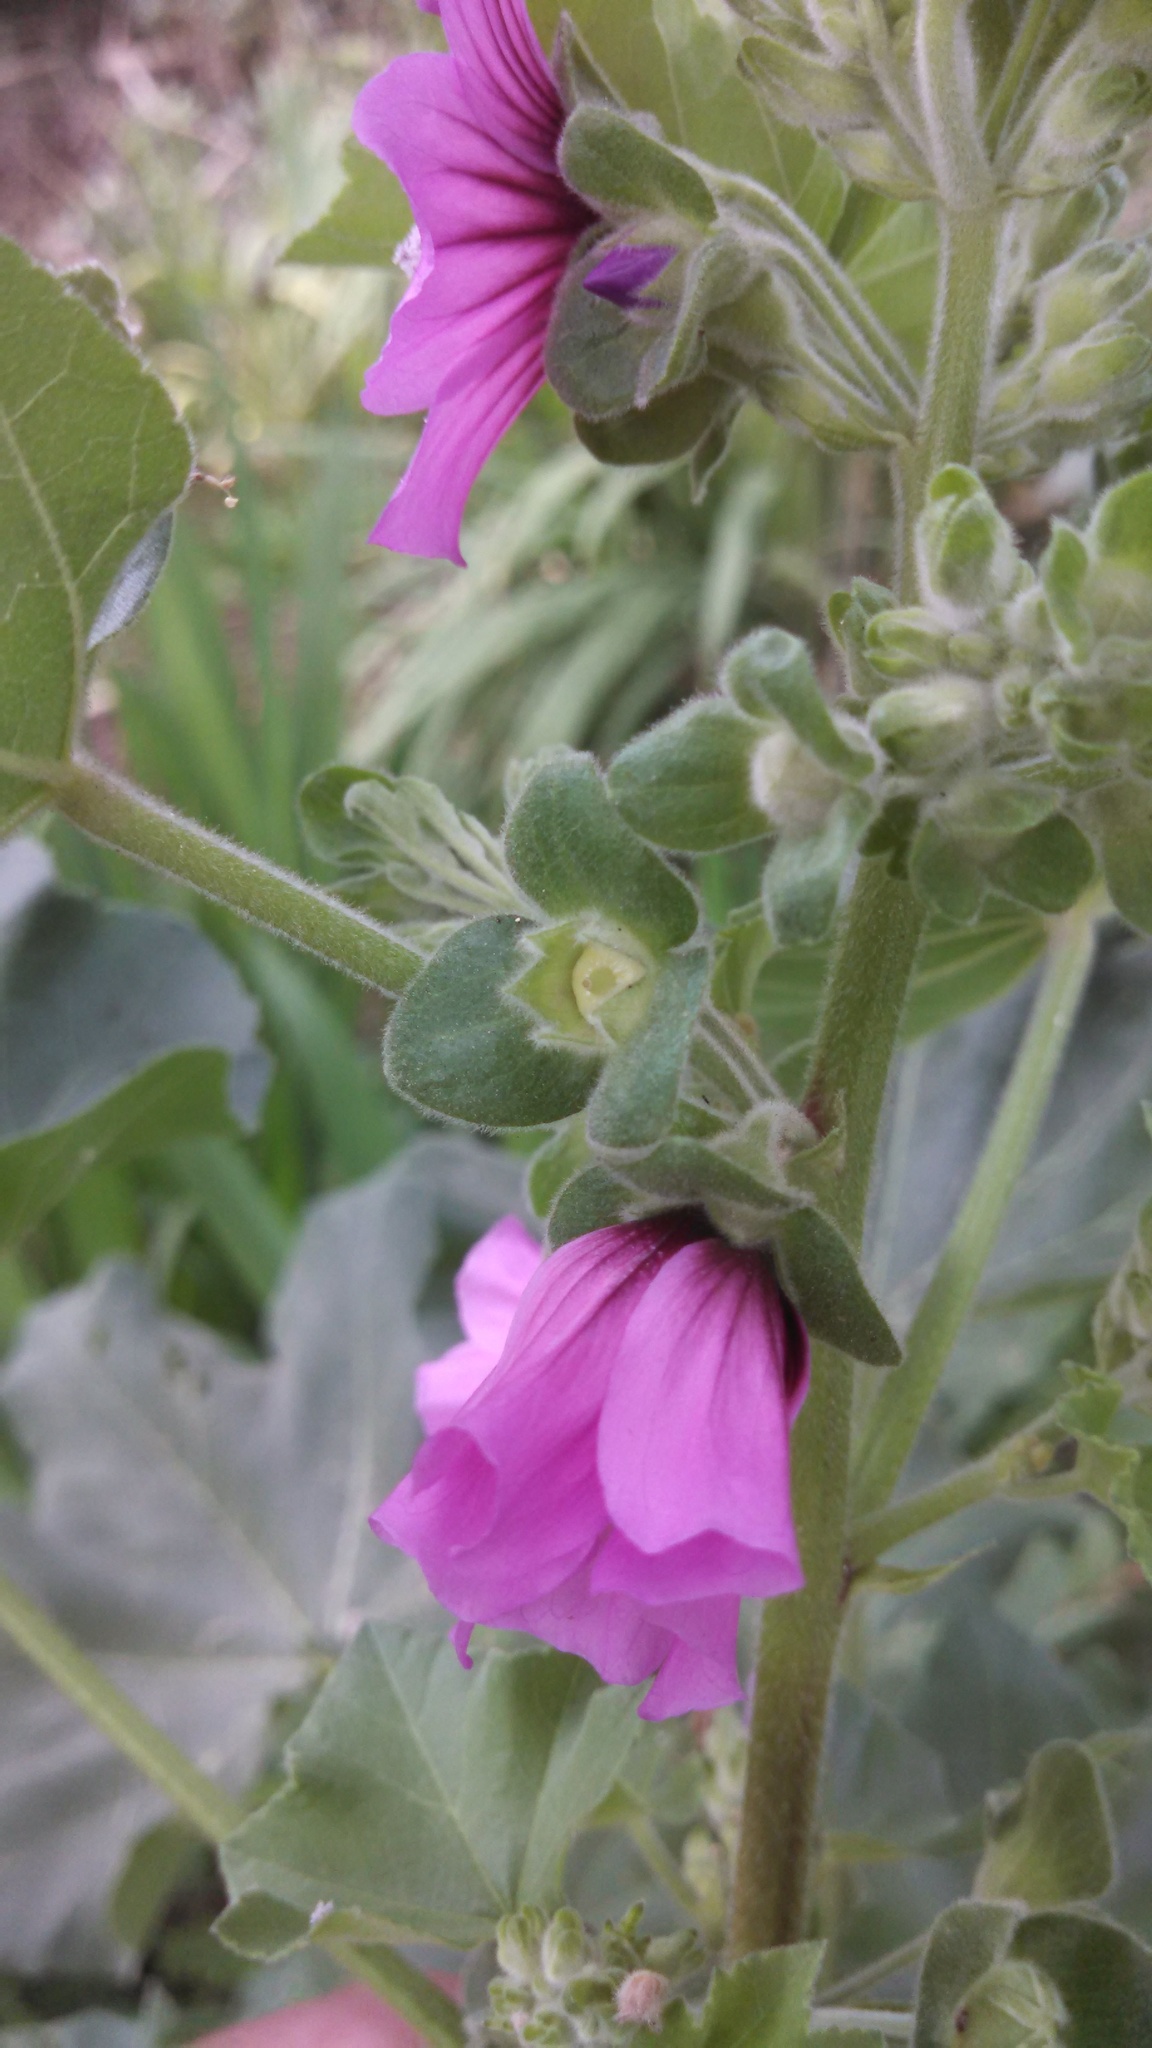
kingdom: Plantae
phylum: Tracheophyta
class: Magnoliopsida
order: Malvales
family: Malvaceae
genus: Malva
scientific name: Malva arborea
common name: Tree mallow
